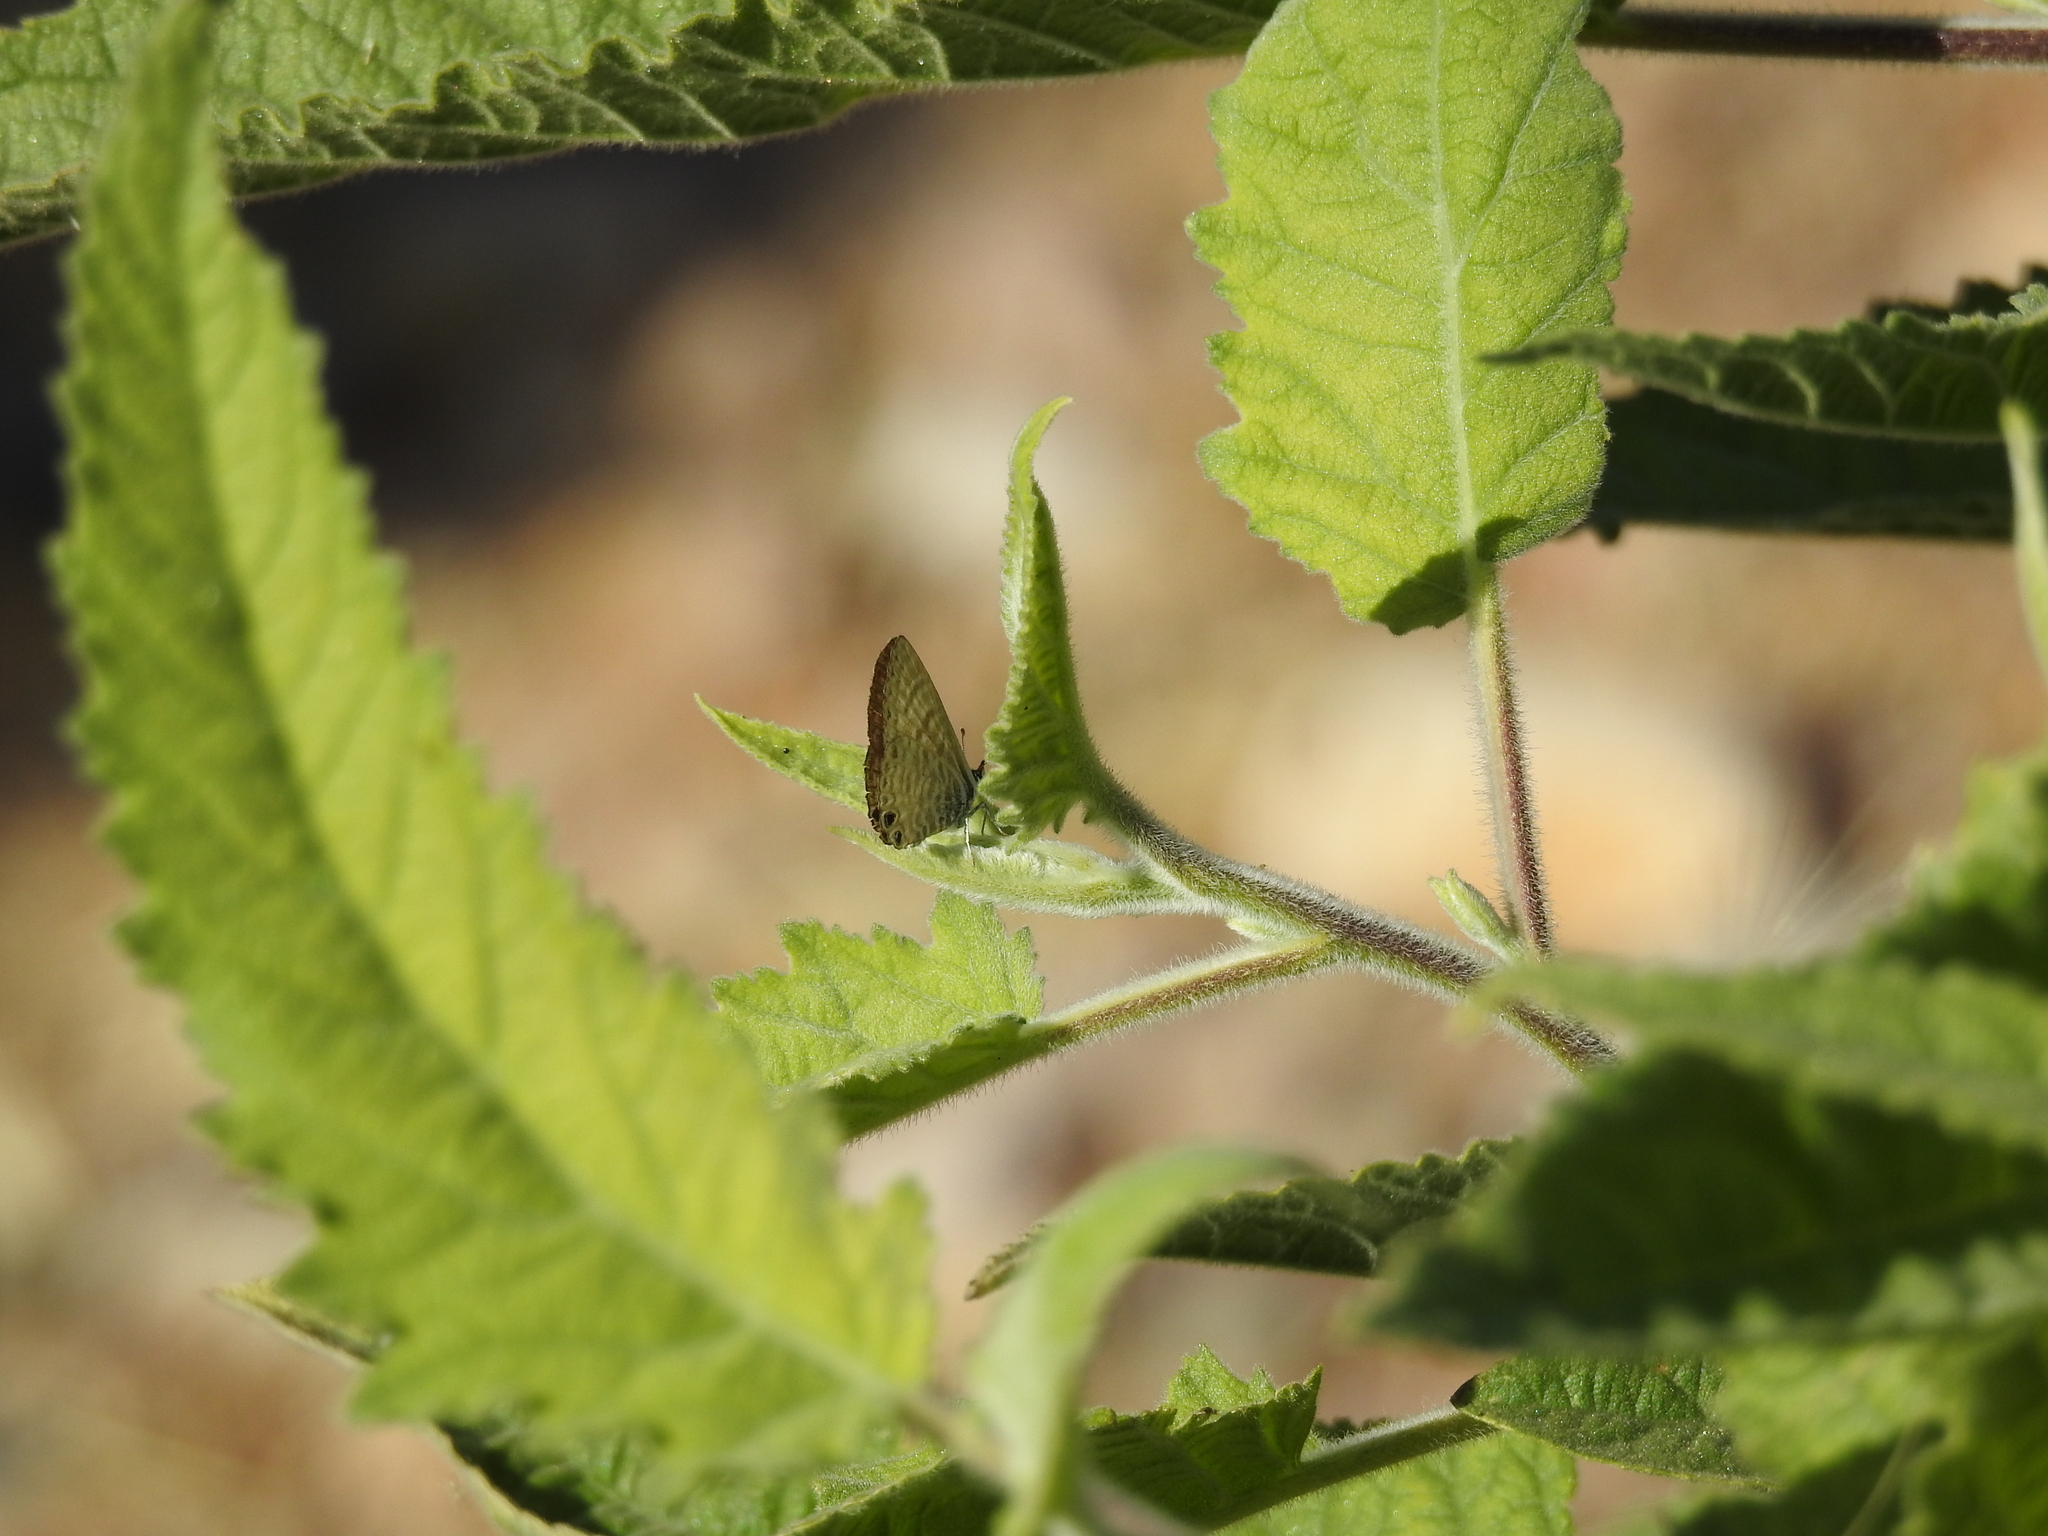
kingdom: Animalia
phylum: Arthropoda
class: Insecta
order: Lepidoptera
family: Lycaenidae
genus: Leptotes
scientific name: Leptotes marina
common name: Marine blue
